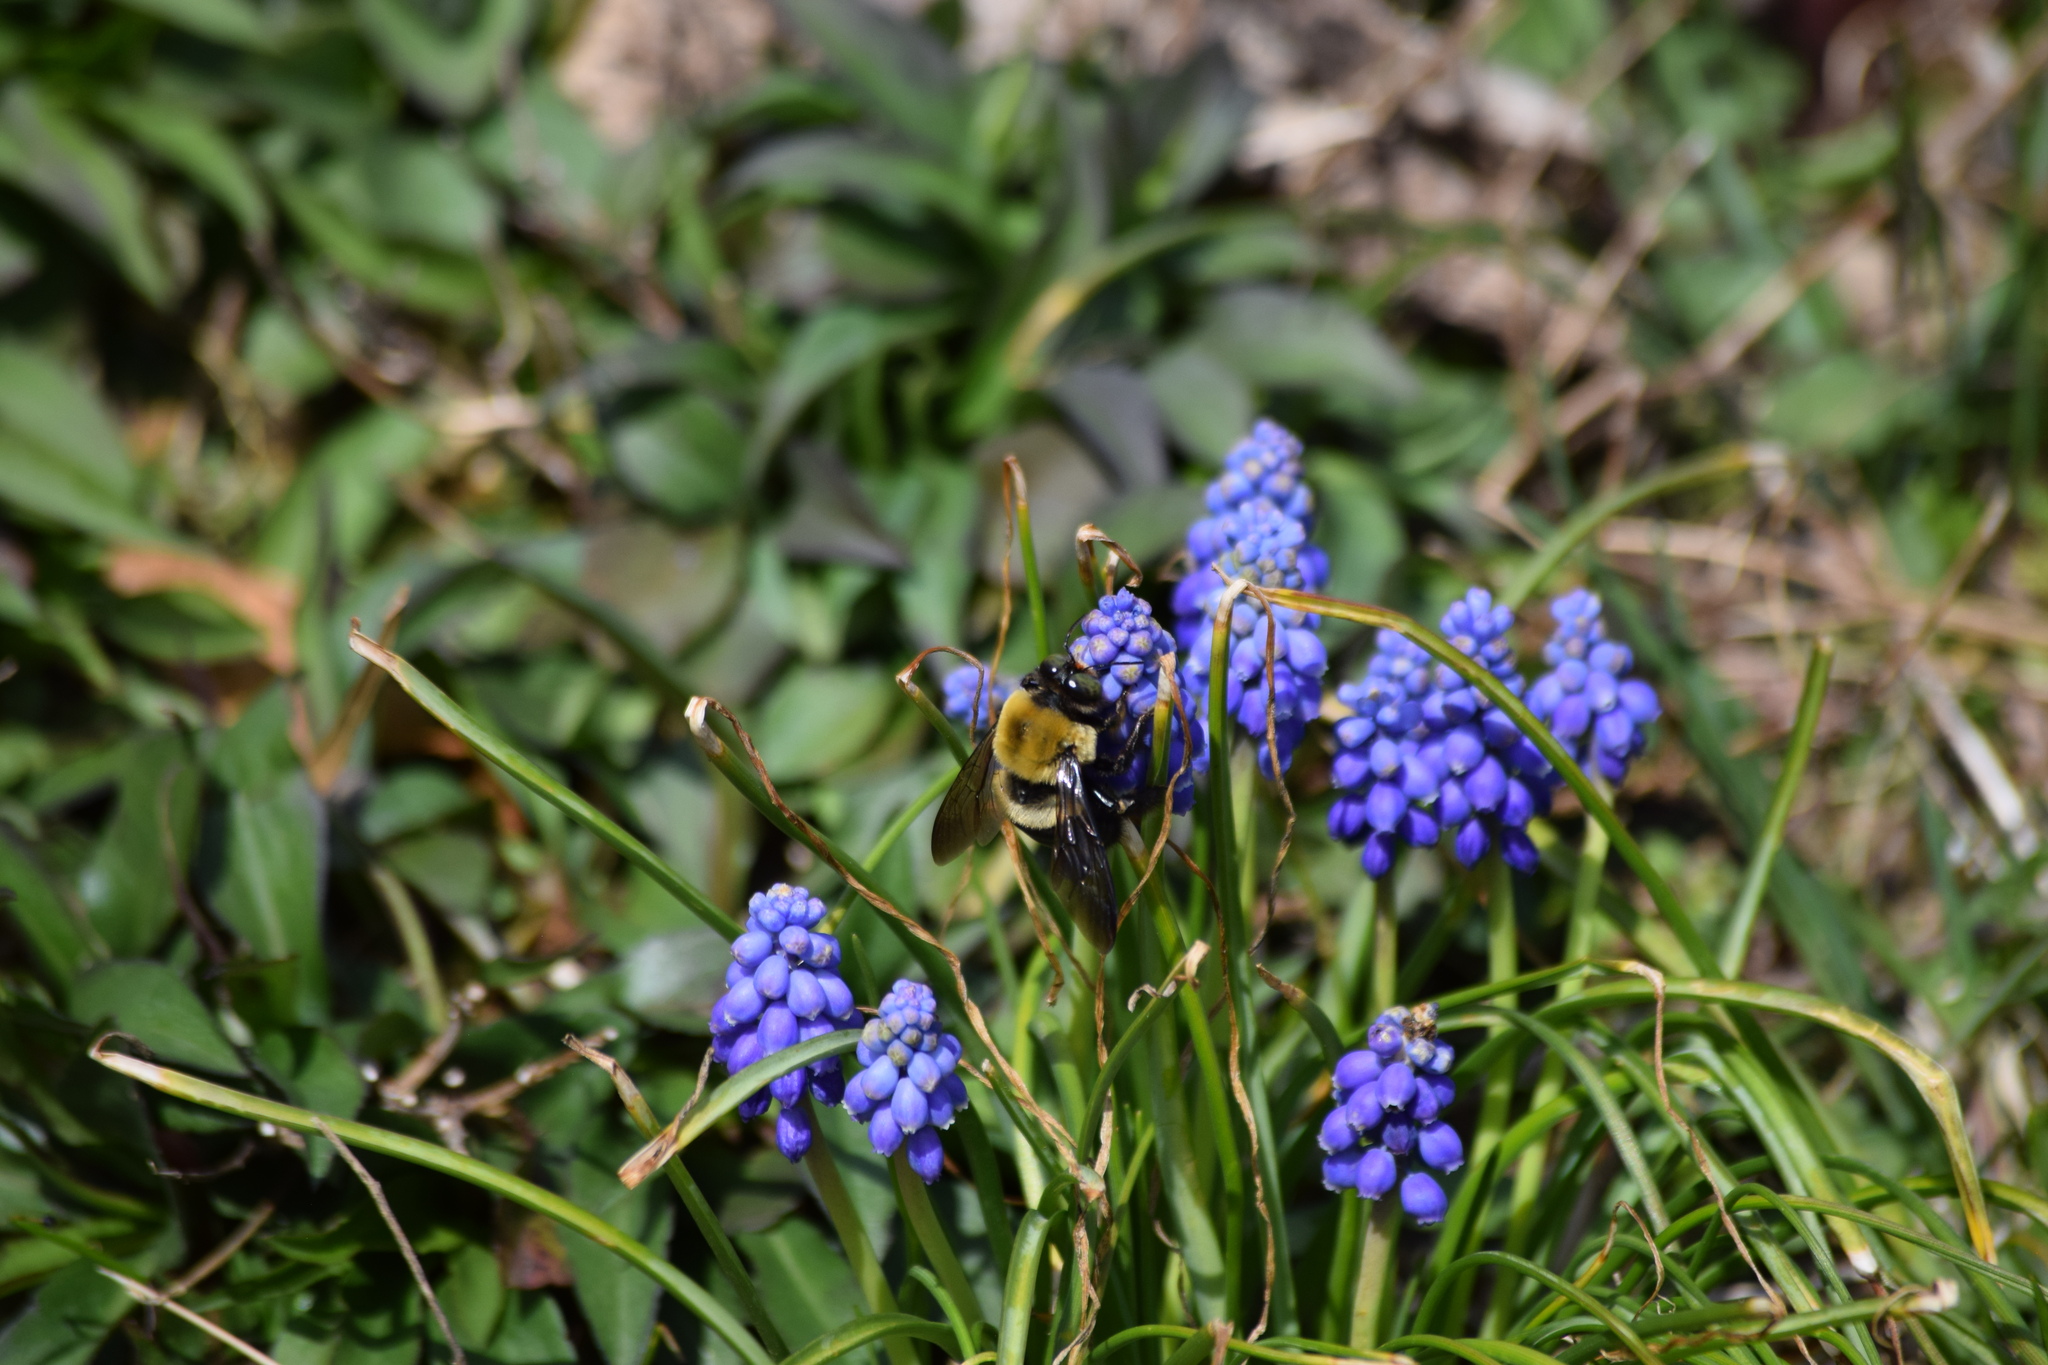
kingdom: Animalia
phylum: Arthropoda
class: Insecta
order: Hymenoptera
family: Apidae
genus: Xylocopa
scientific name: Xylocopa virginica
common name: Carpenter bee
